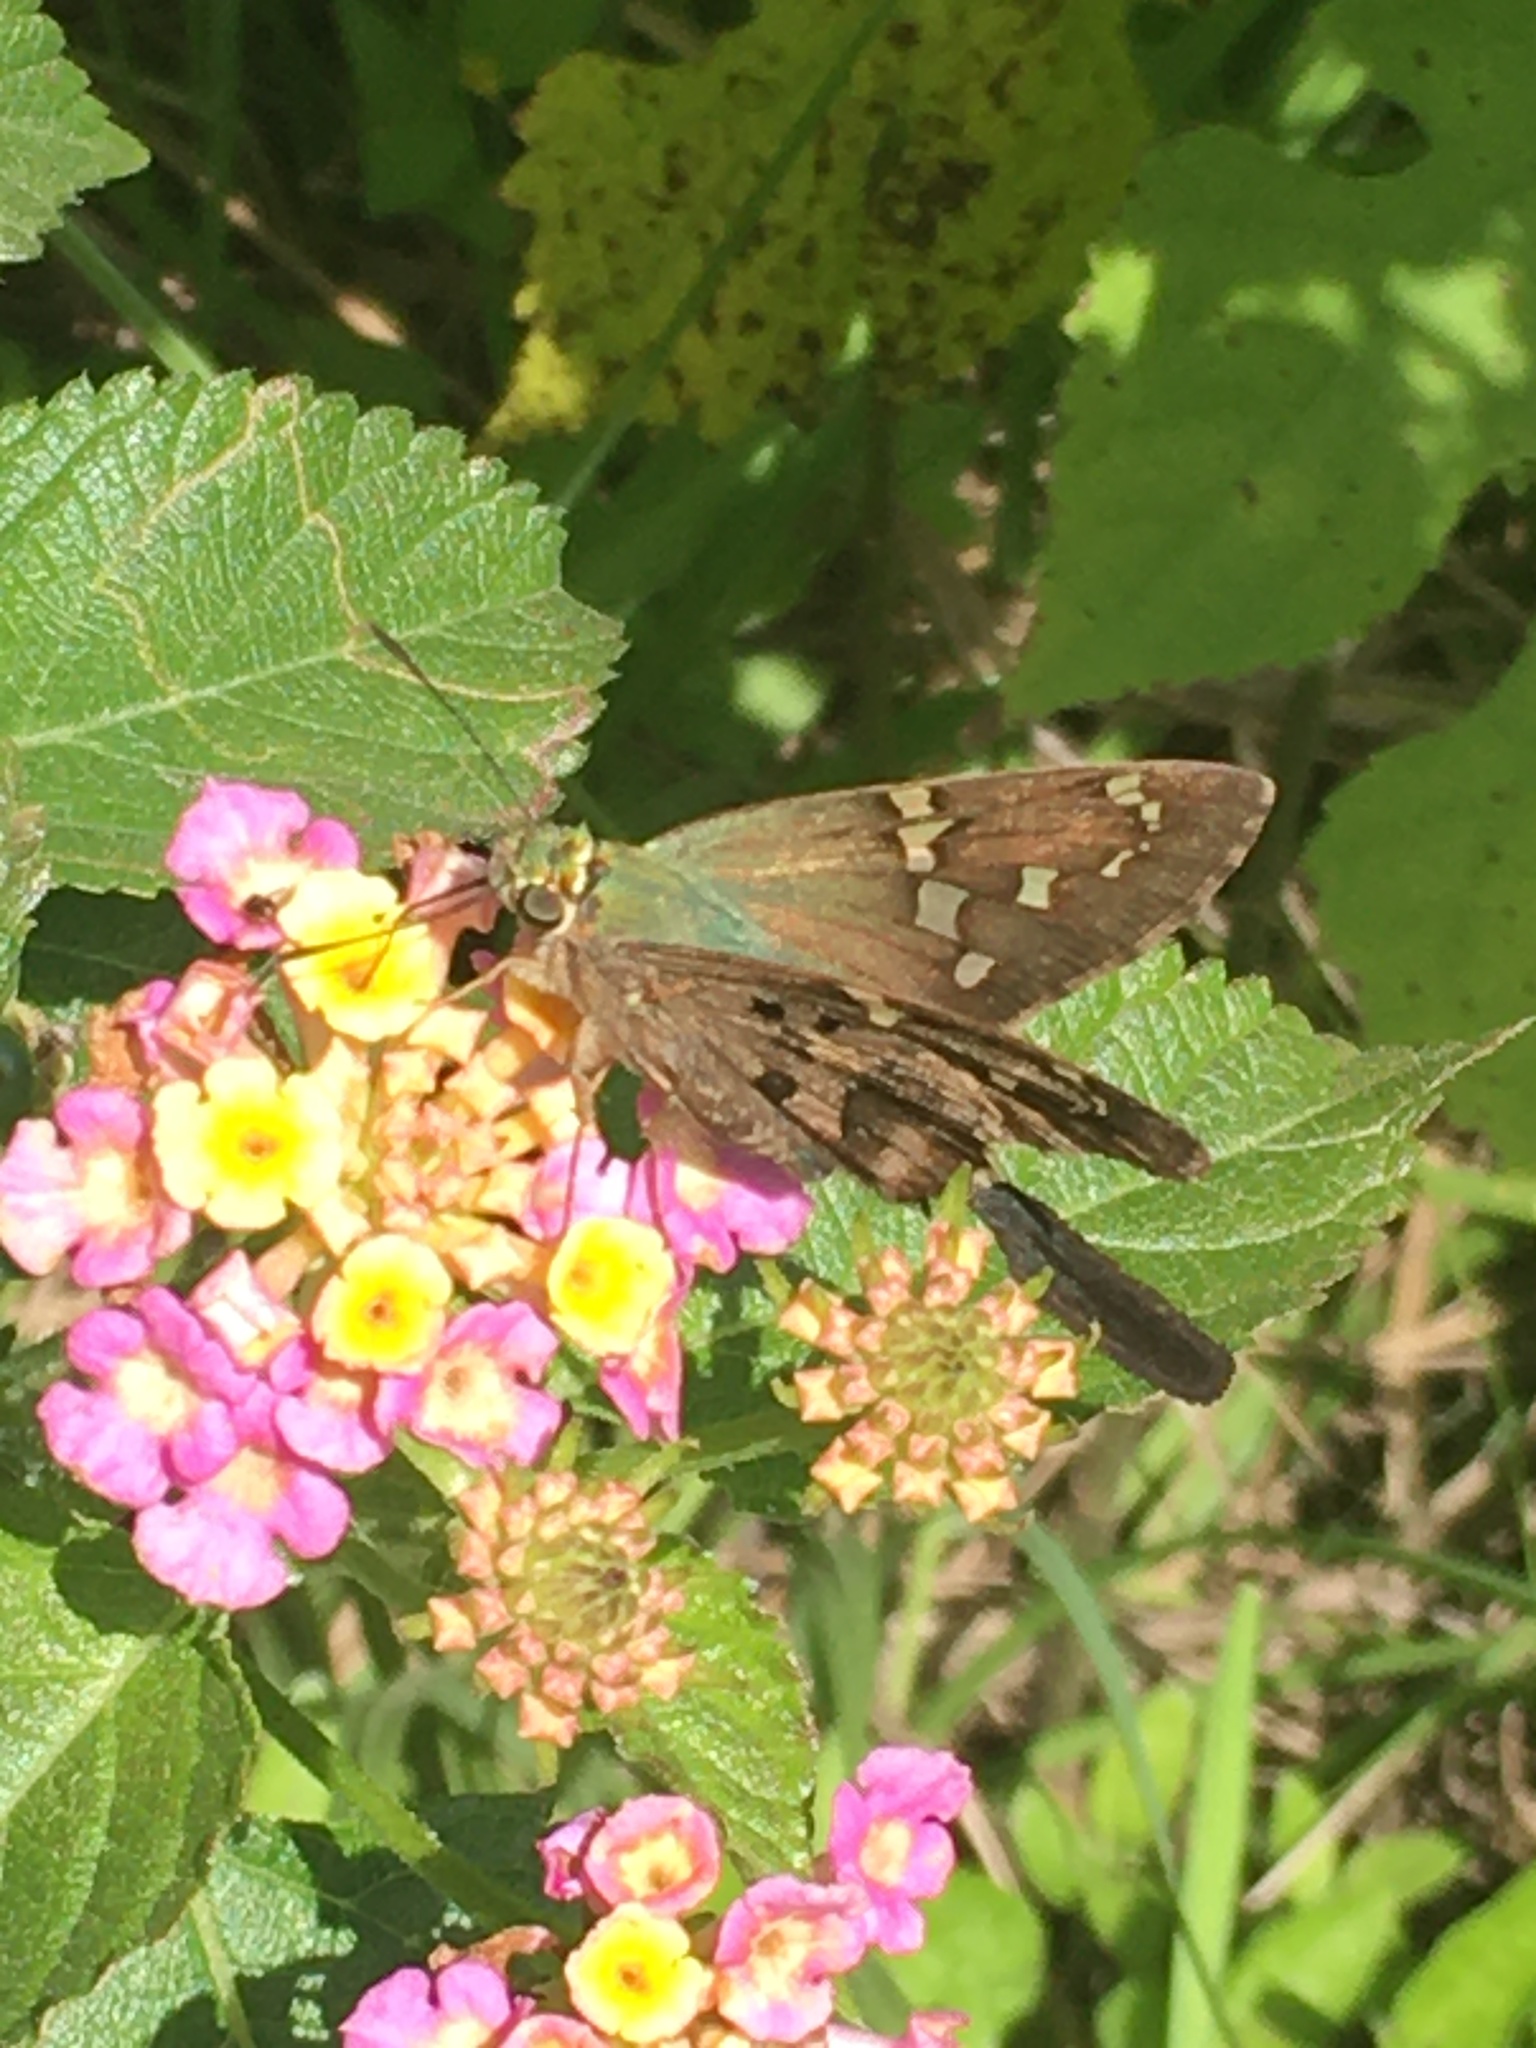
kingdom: Animalia
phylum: Arthropoda
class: Insecta
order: Lepidoptera
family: Hesperiidae
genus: Urbanus
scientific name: Urbanus proteus
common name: Long-tailed skipper
